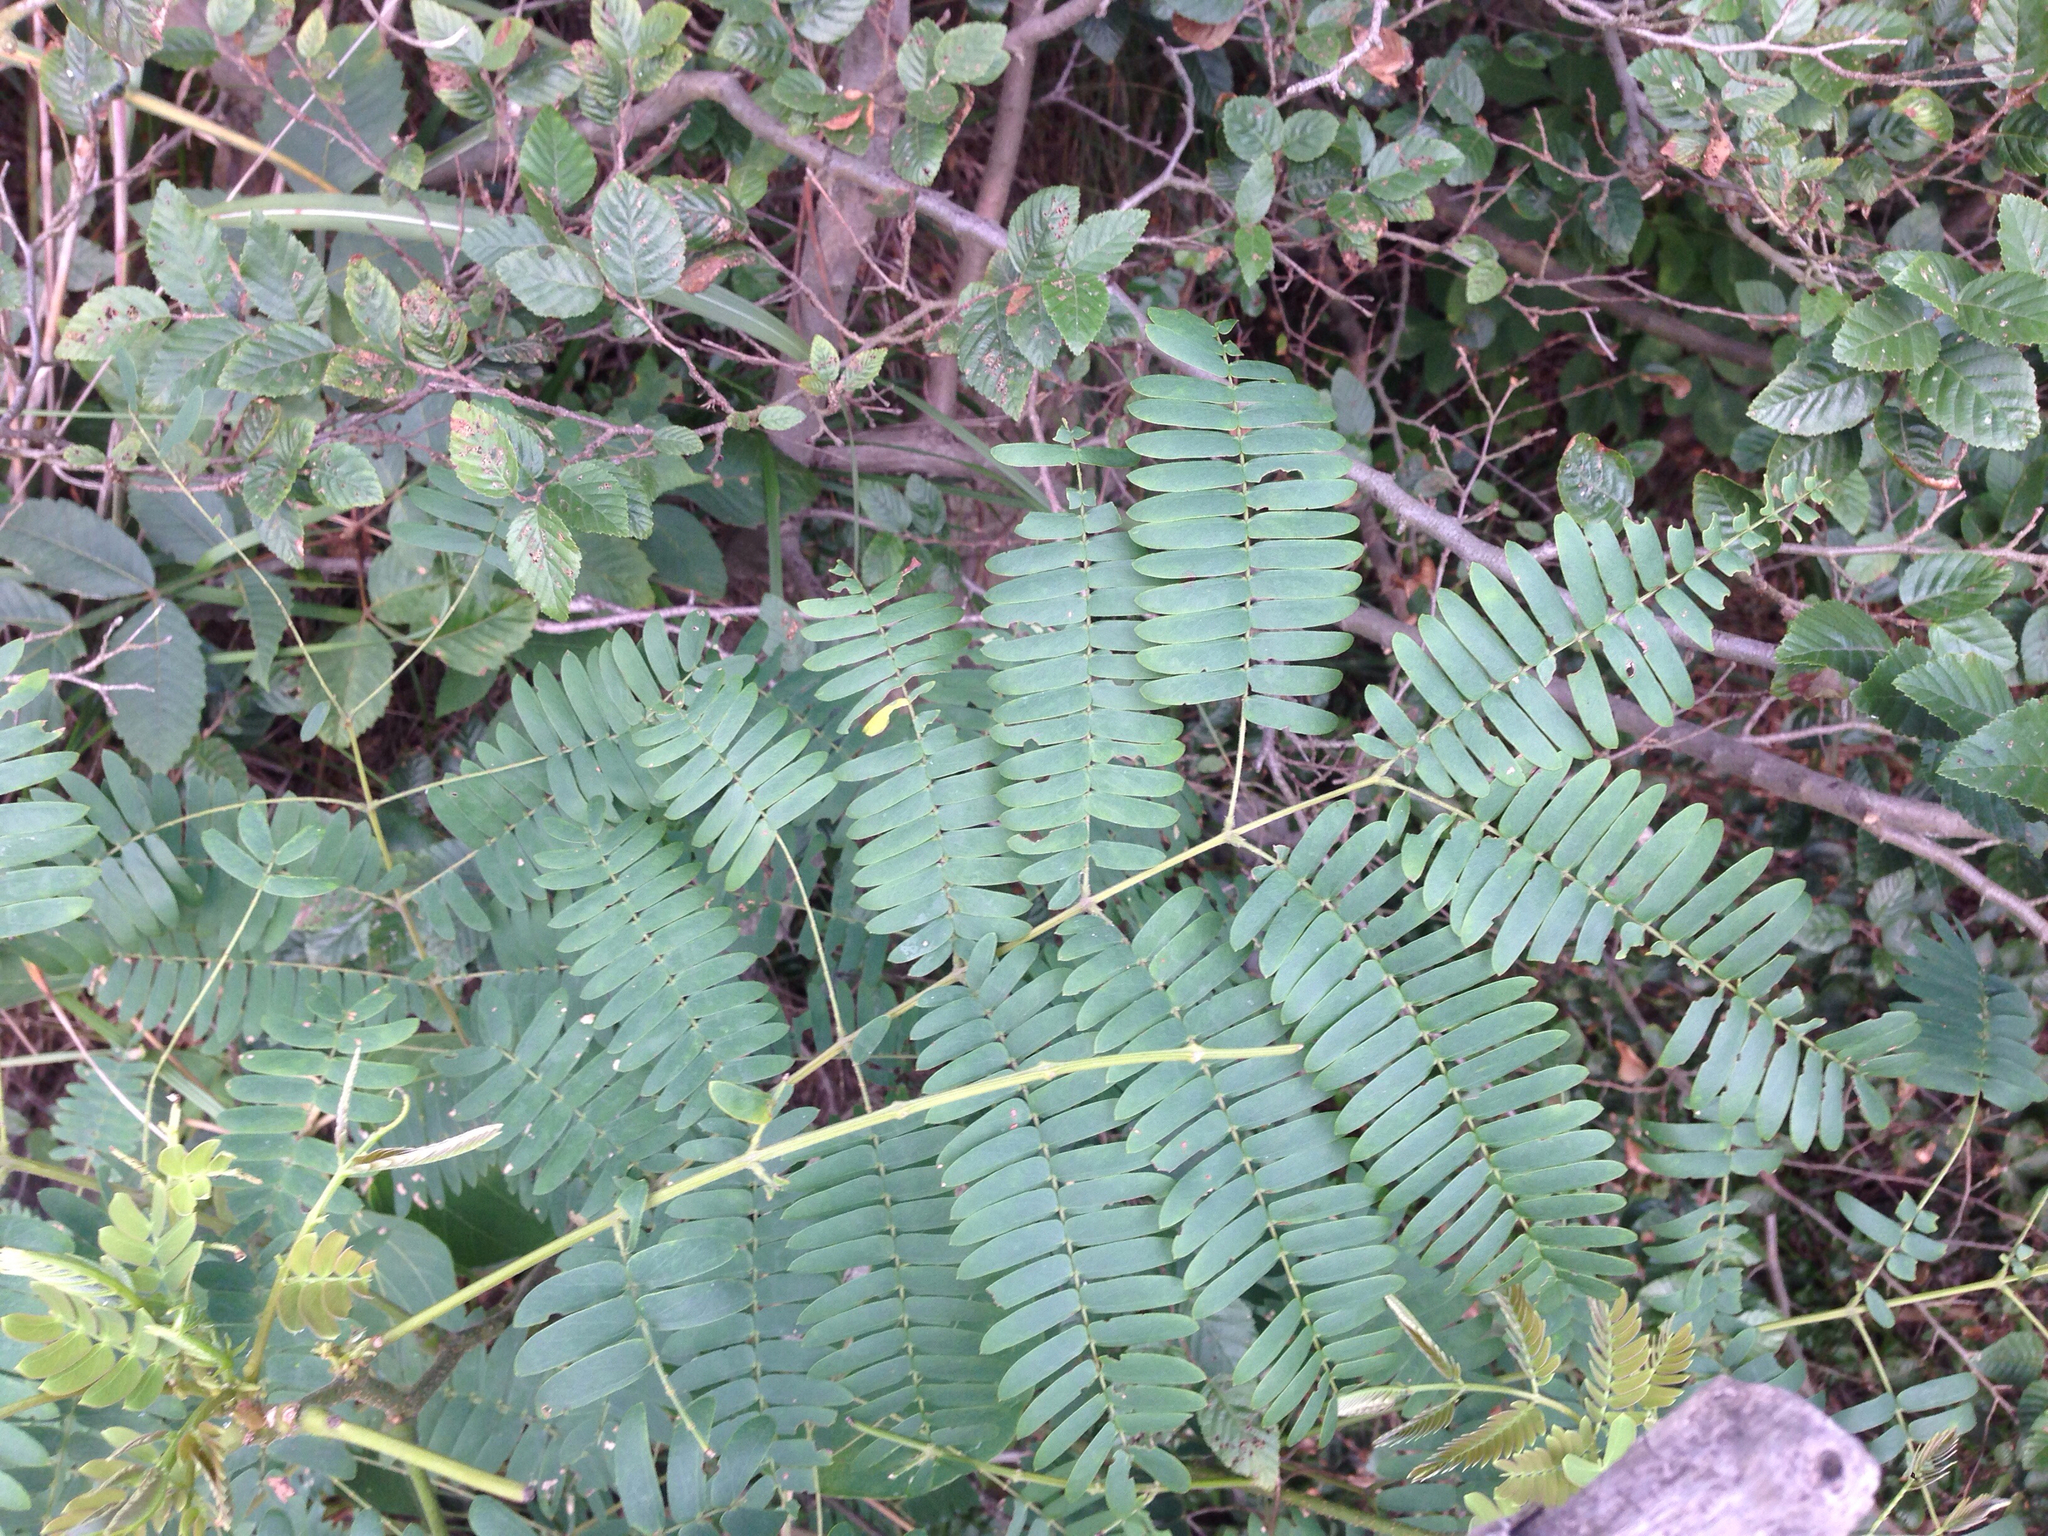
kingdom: Plantae
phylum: Tracheophyta
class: Magnoliopsida
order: Fabales
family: Fabaceae
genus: Albizia
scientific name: Albizia julibrissin
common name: Silktree
